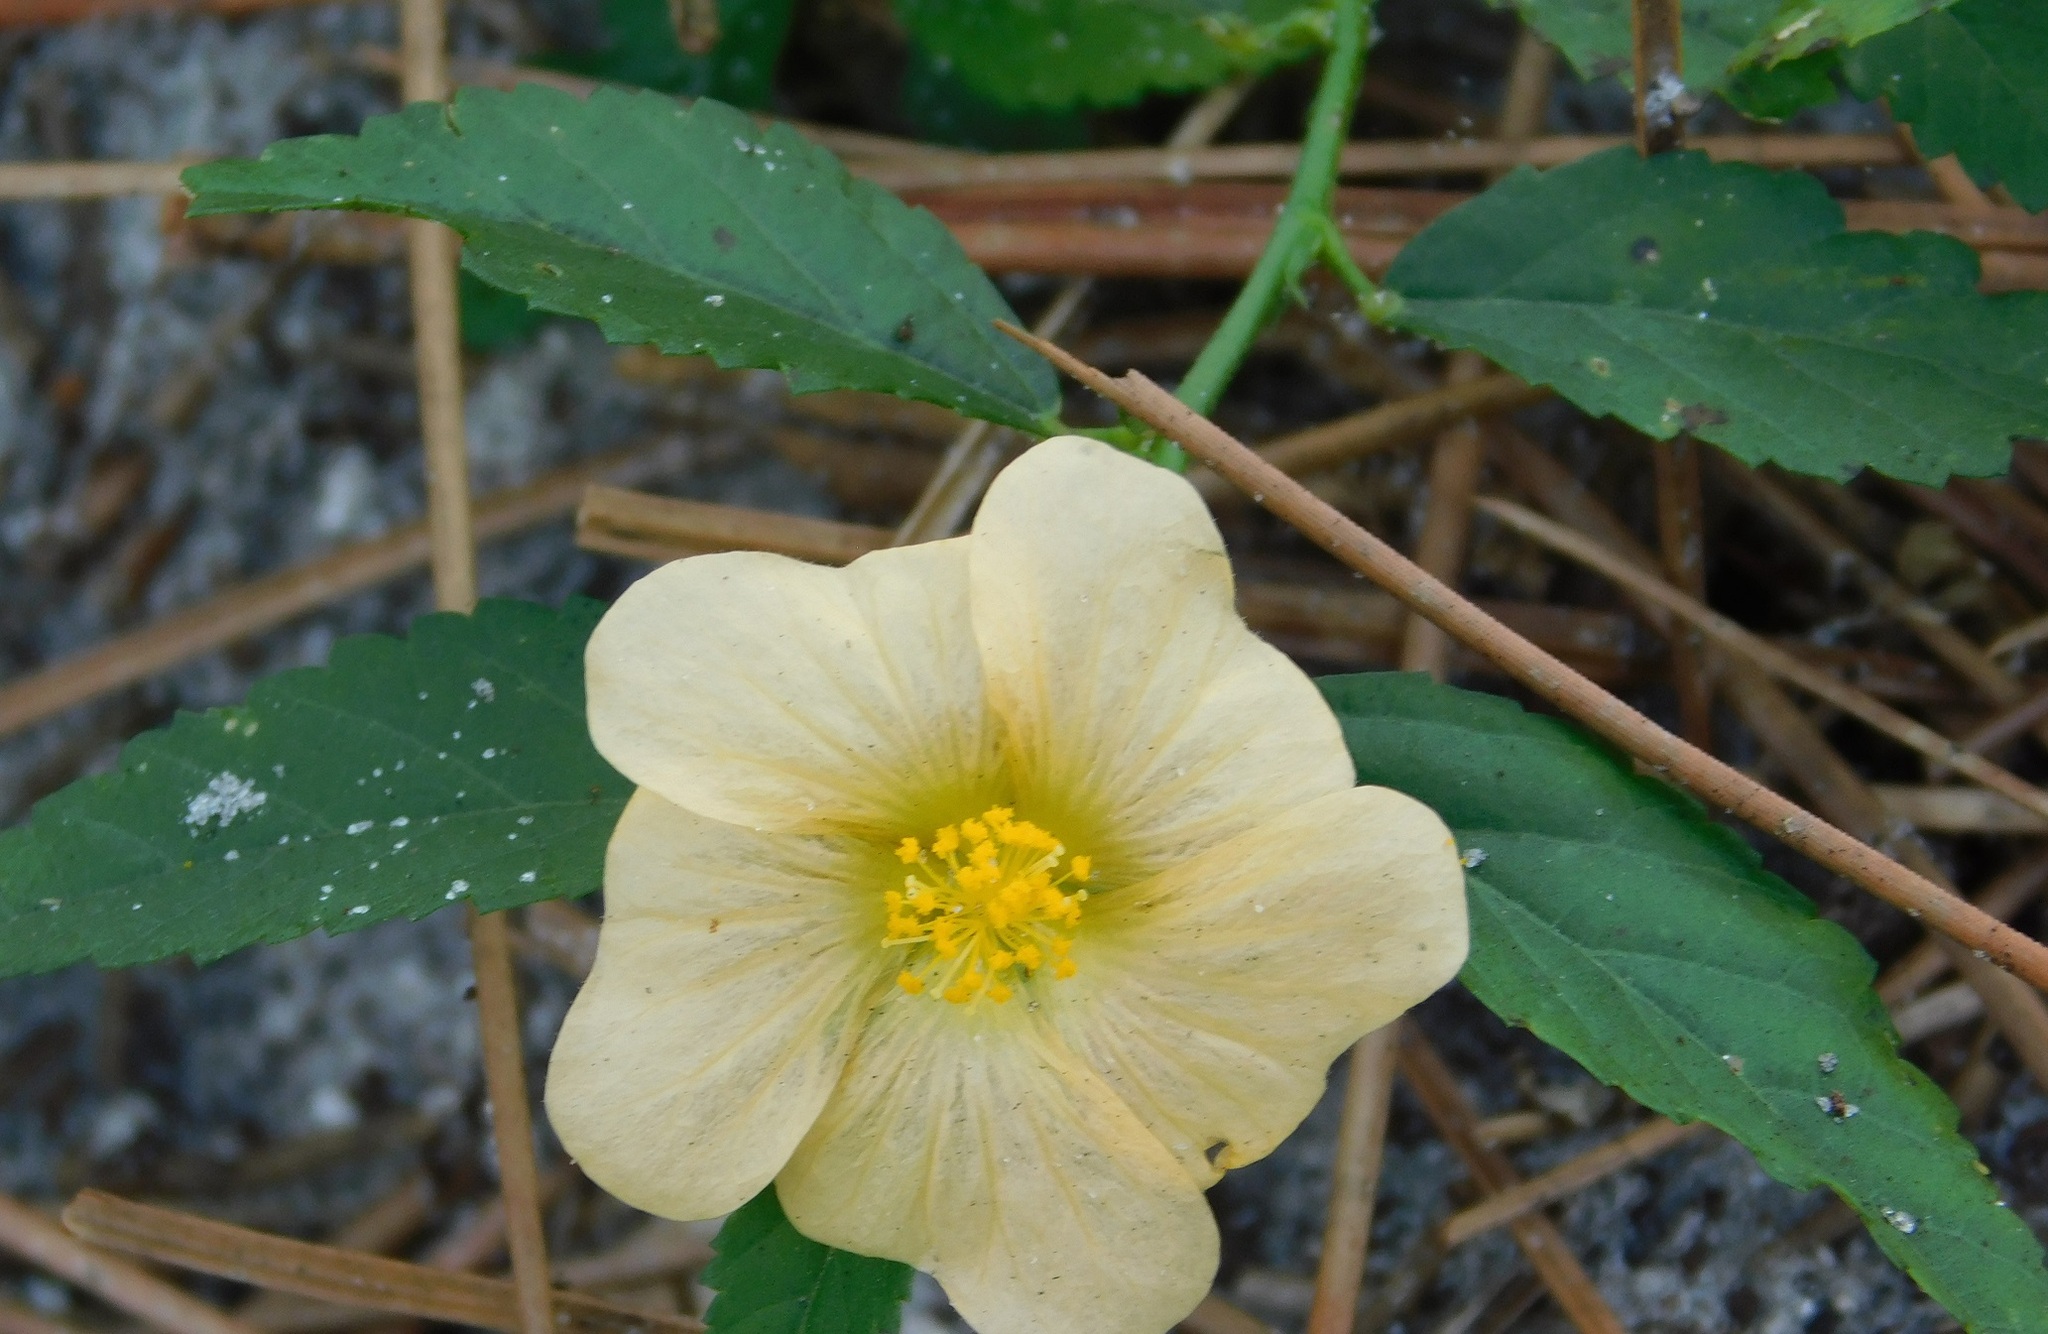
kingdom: Plantae
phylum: Tracheophyta
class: Magnoliopsida
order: Malvales
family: Malvaceae
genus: Sida
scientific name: Sida ulmifolia
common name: Broom weed
